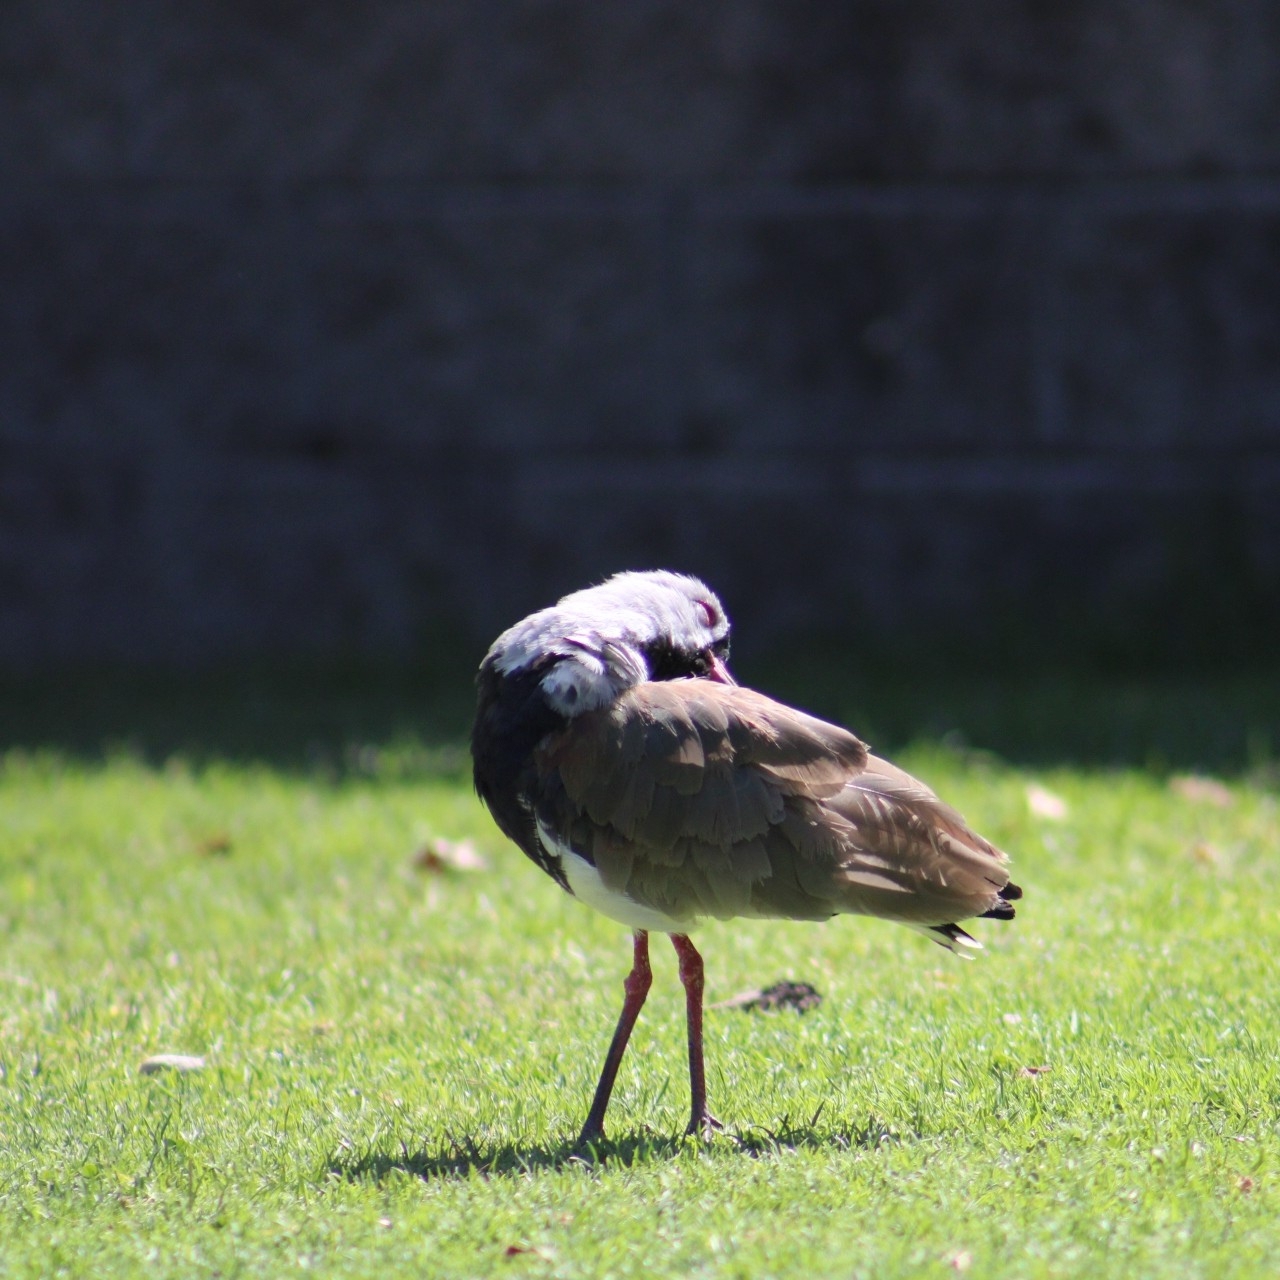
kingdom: Animalia
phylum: Chordata
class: Aves
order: Charadriiformes
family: Charadriidae
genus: Vanellus
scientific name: Vanellus chilensis
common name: Southern lapwing
